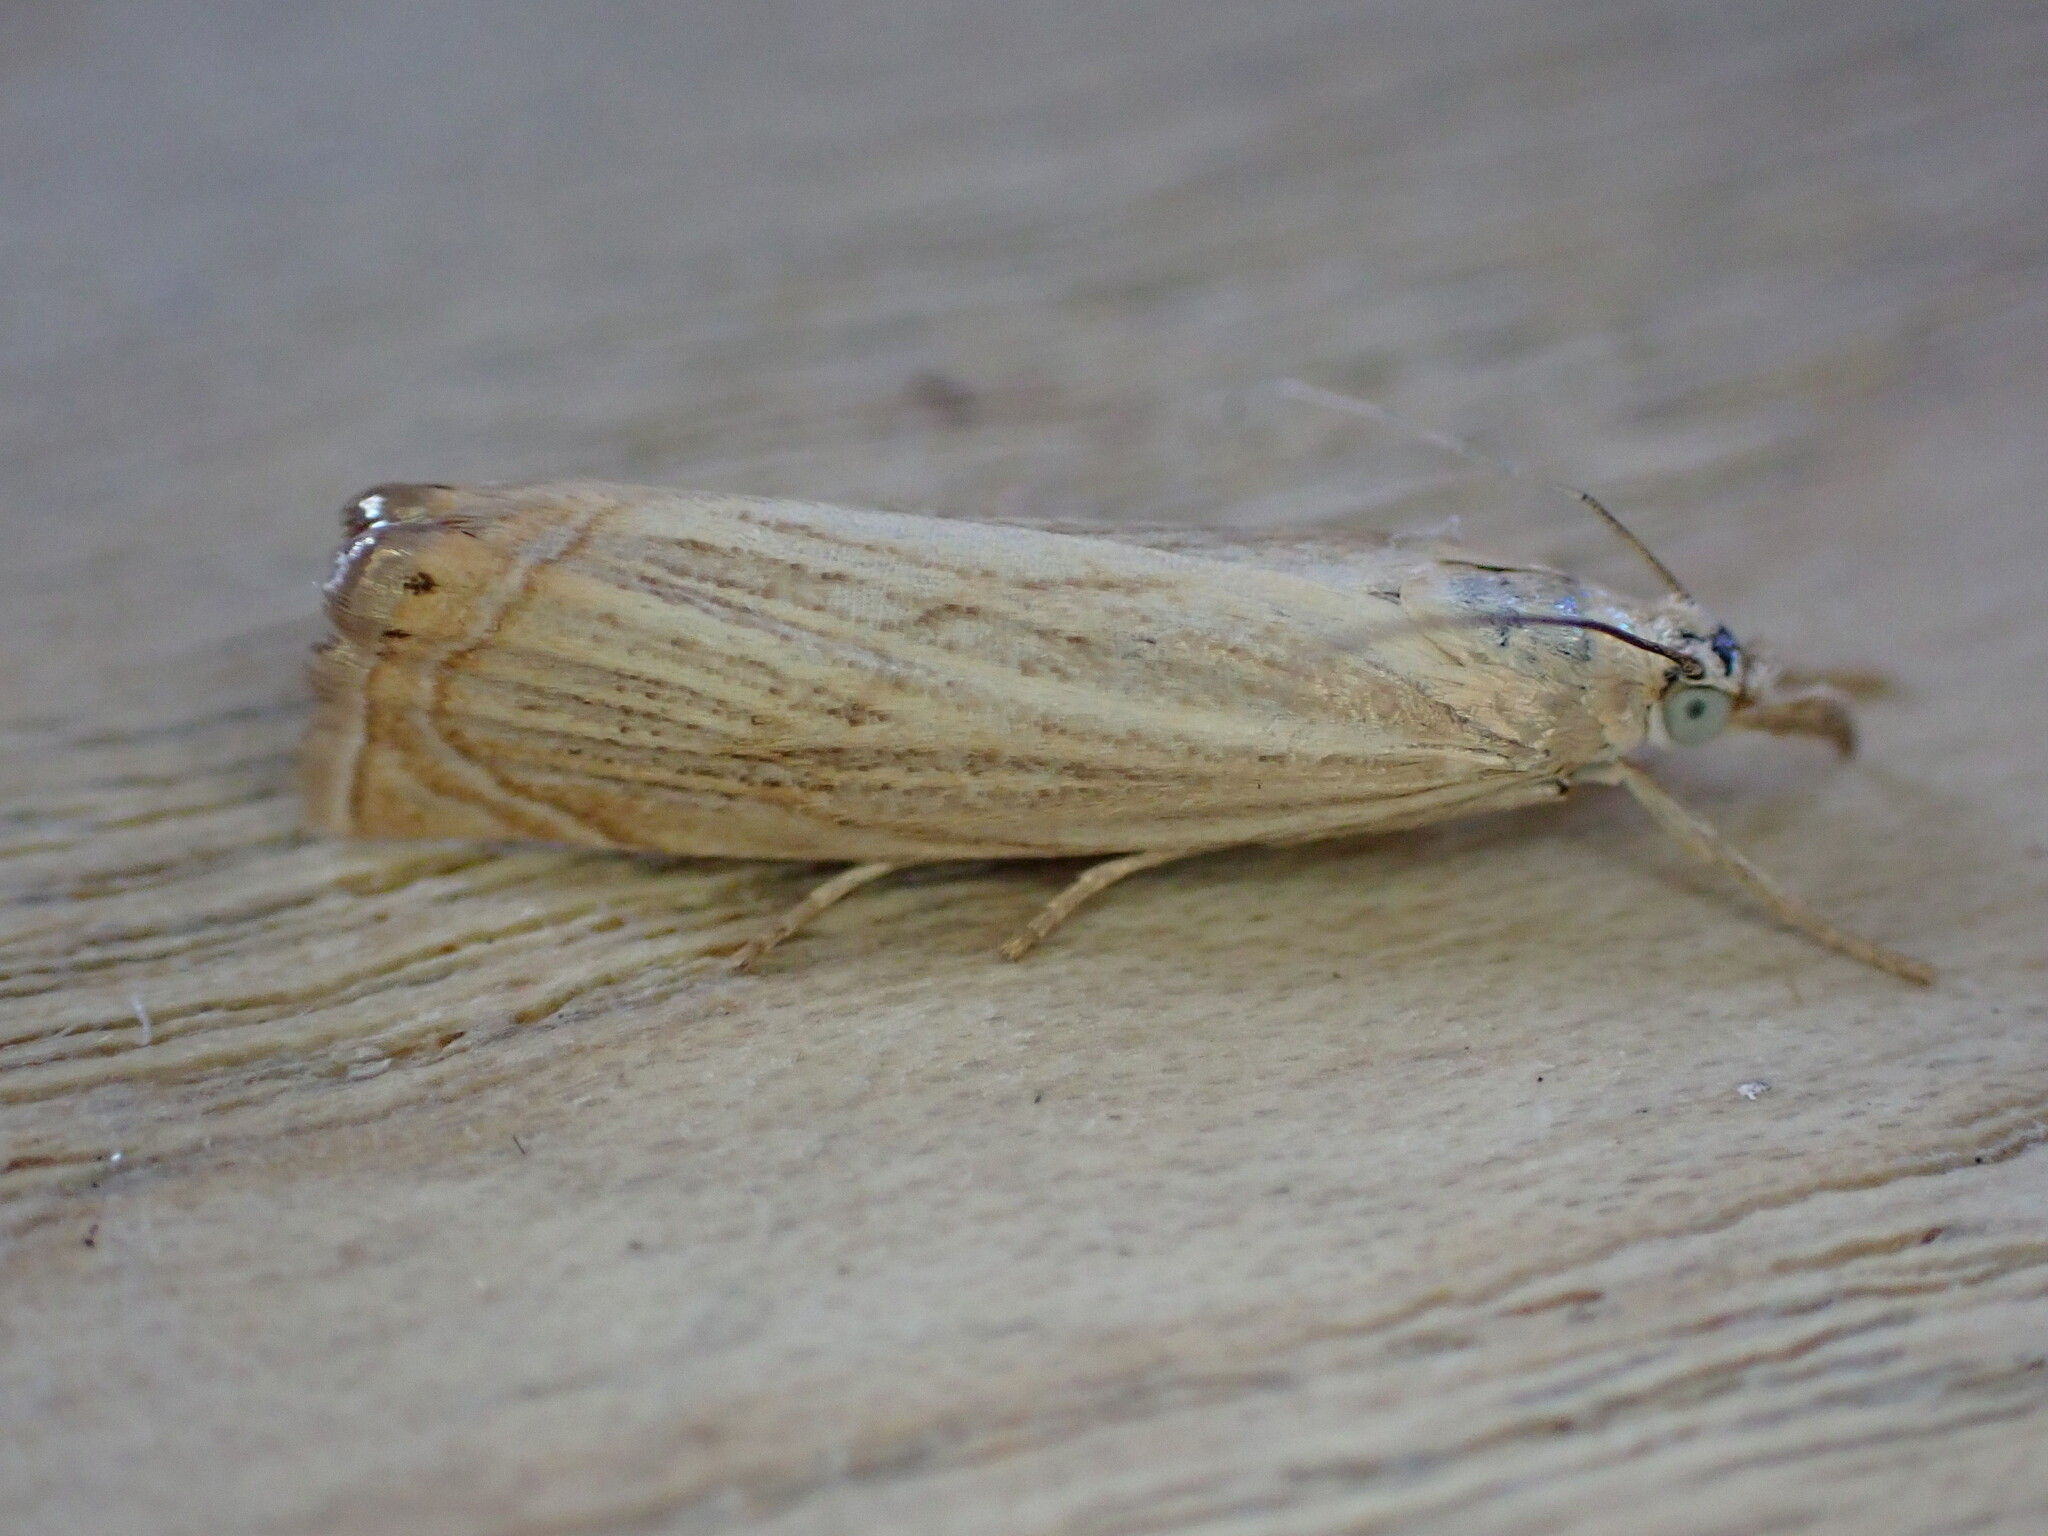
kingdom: Animalia
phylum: Arthropoda
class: Insecta
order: Lepidoptera
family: Crambidae
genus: Chrysoteuchia
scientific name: Chrysoteuchia culmella
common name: Garden grass-veneer
